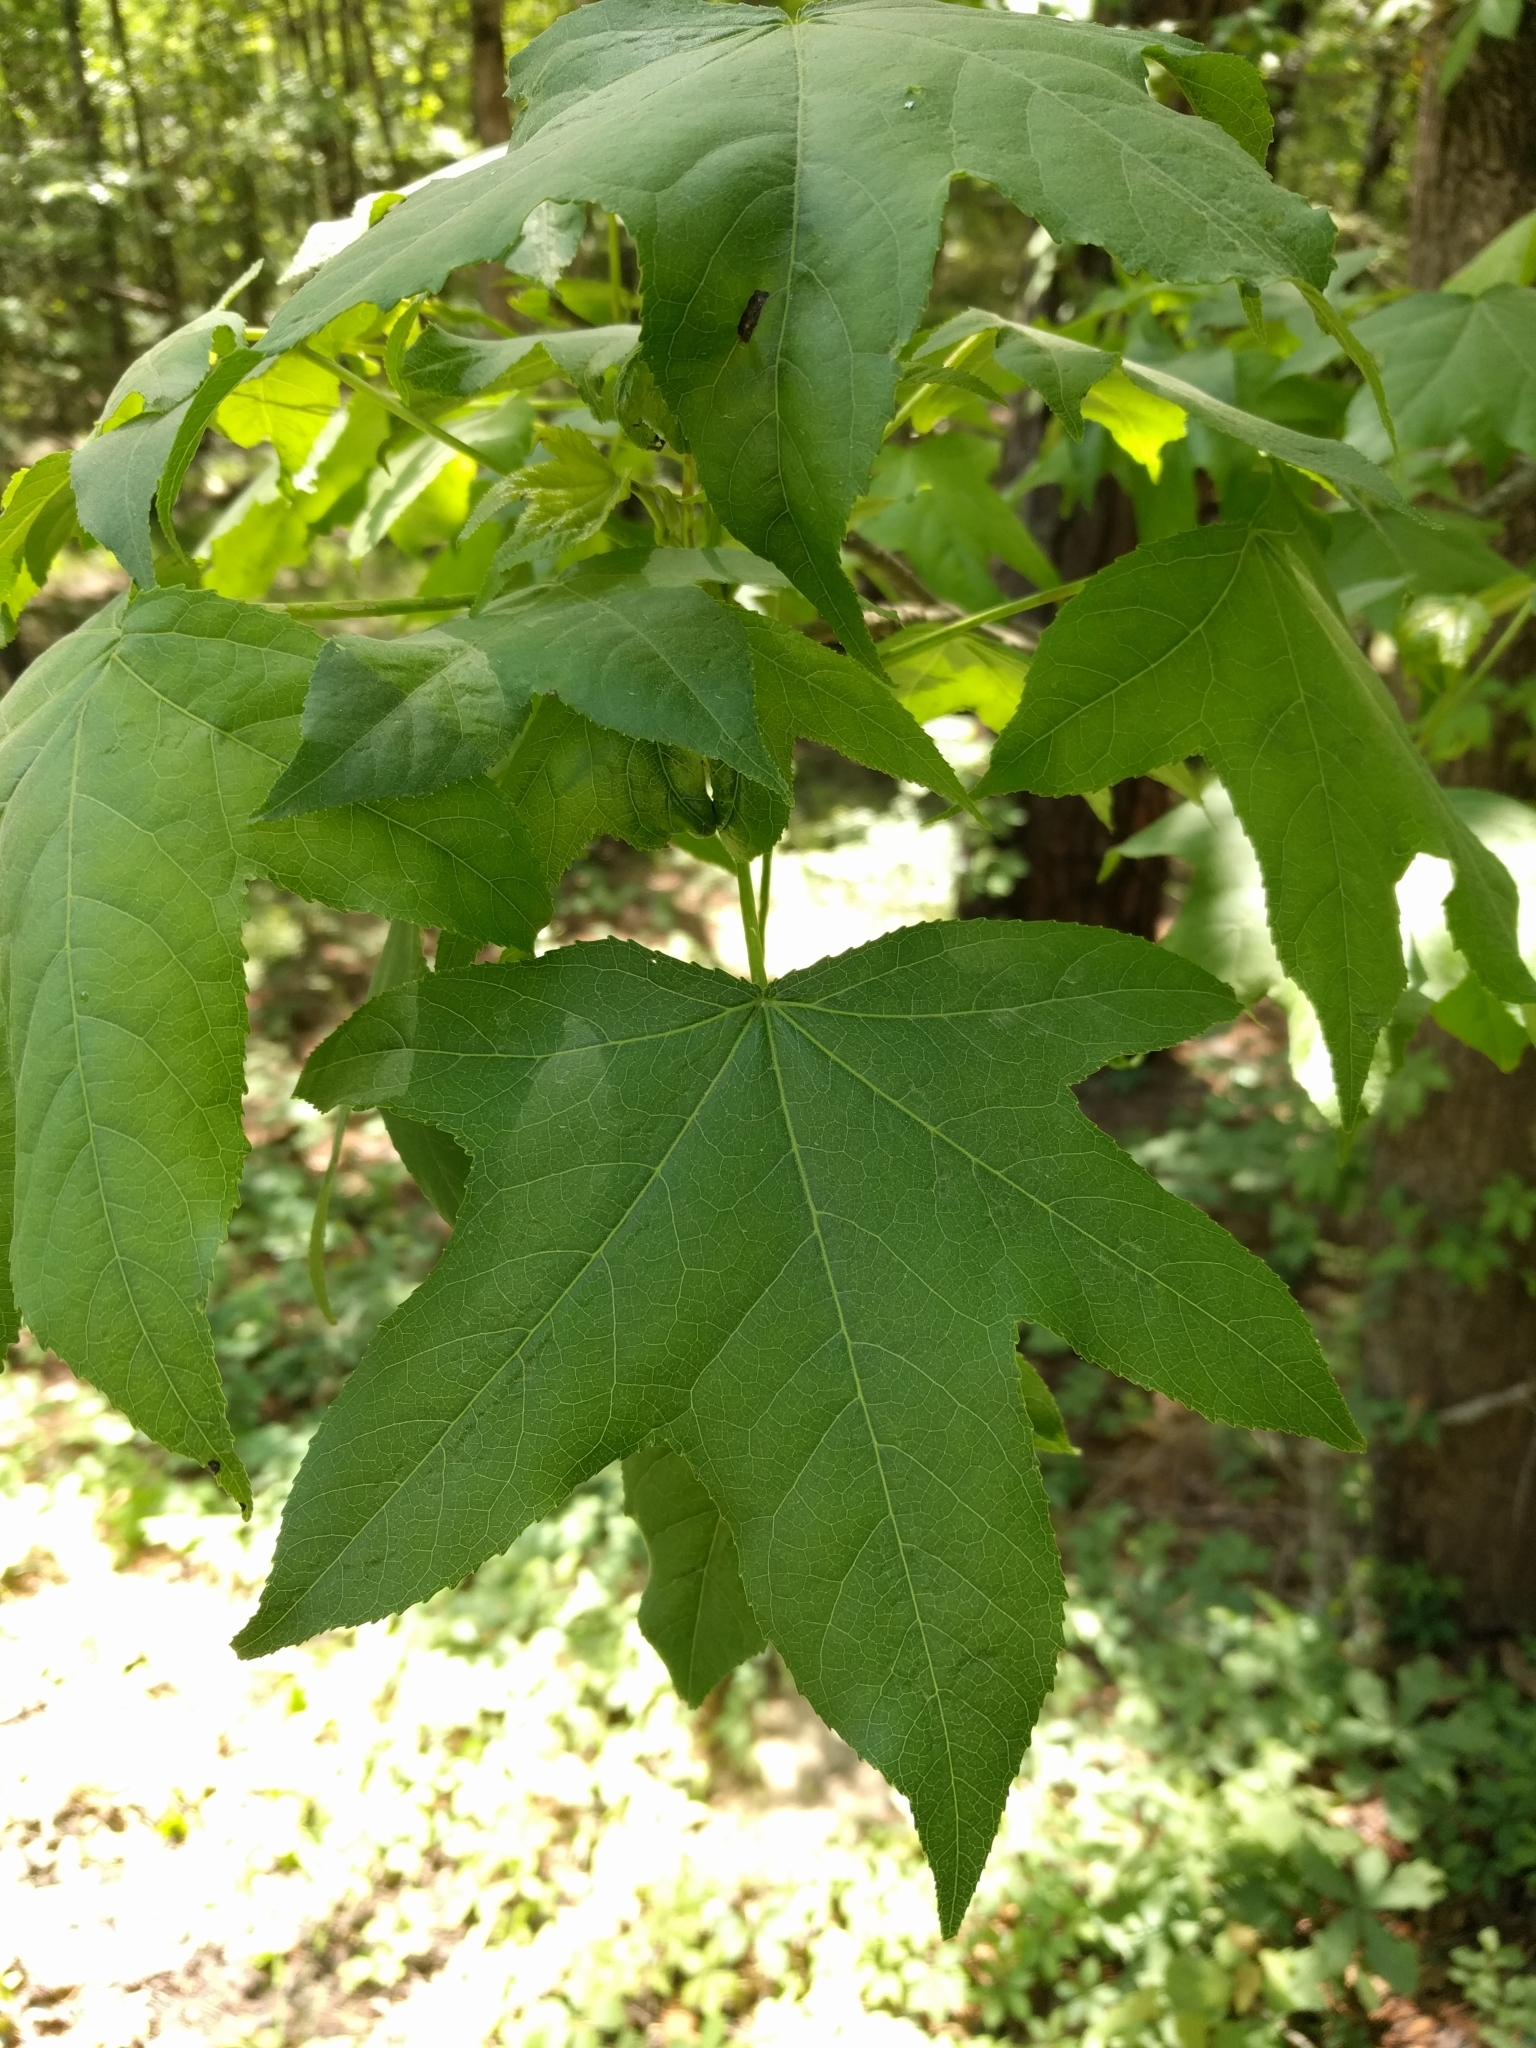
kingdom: Plantae
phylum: Tracheophyta
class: Magnoliopsida
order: Saxifragales
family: Altingiaceae
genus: Liquidambar
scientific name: Liquidambar styraciflua
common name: Sweet gum
